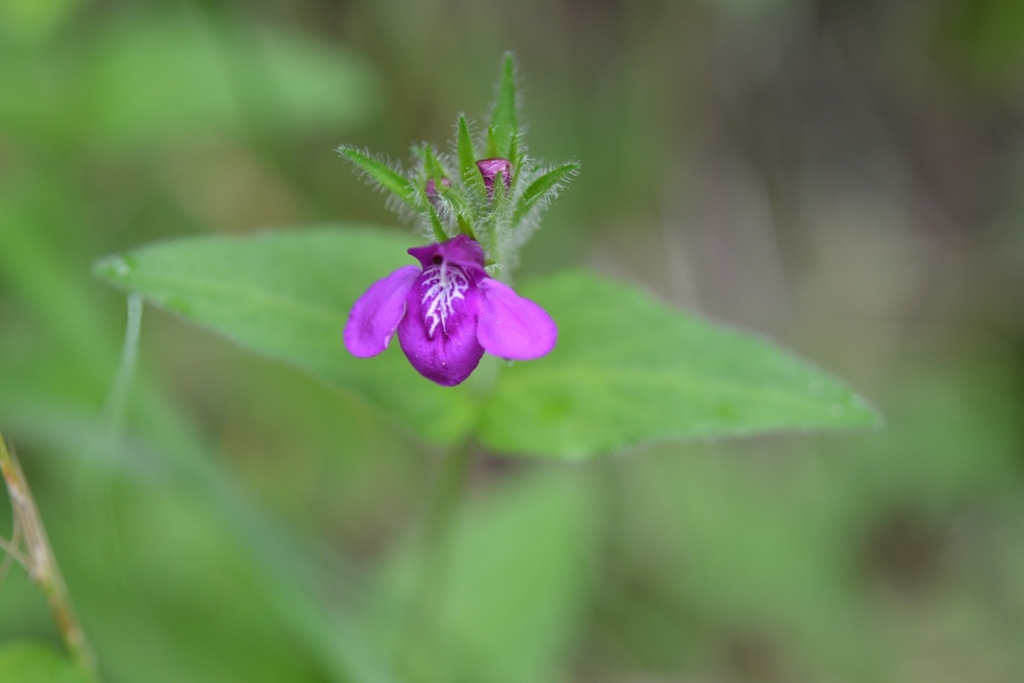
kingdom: Plantae
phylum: Tracheophyta
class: Magnoliopsida
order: Lamiales
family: Acanthaceae
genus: Justicia
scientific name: Justicia clinopodium
